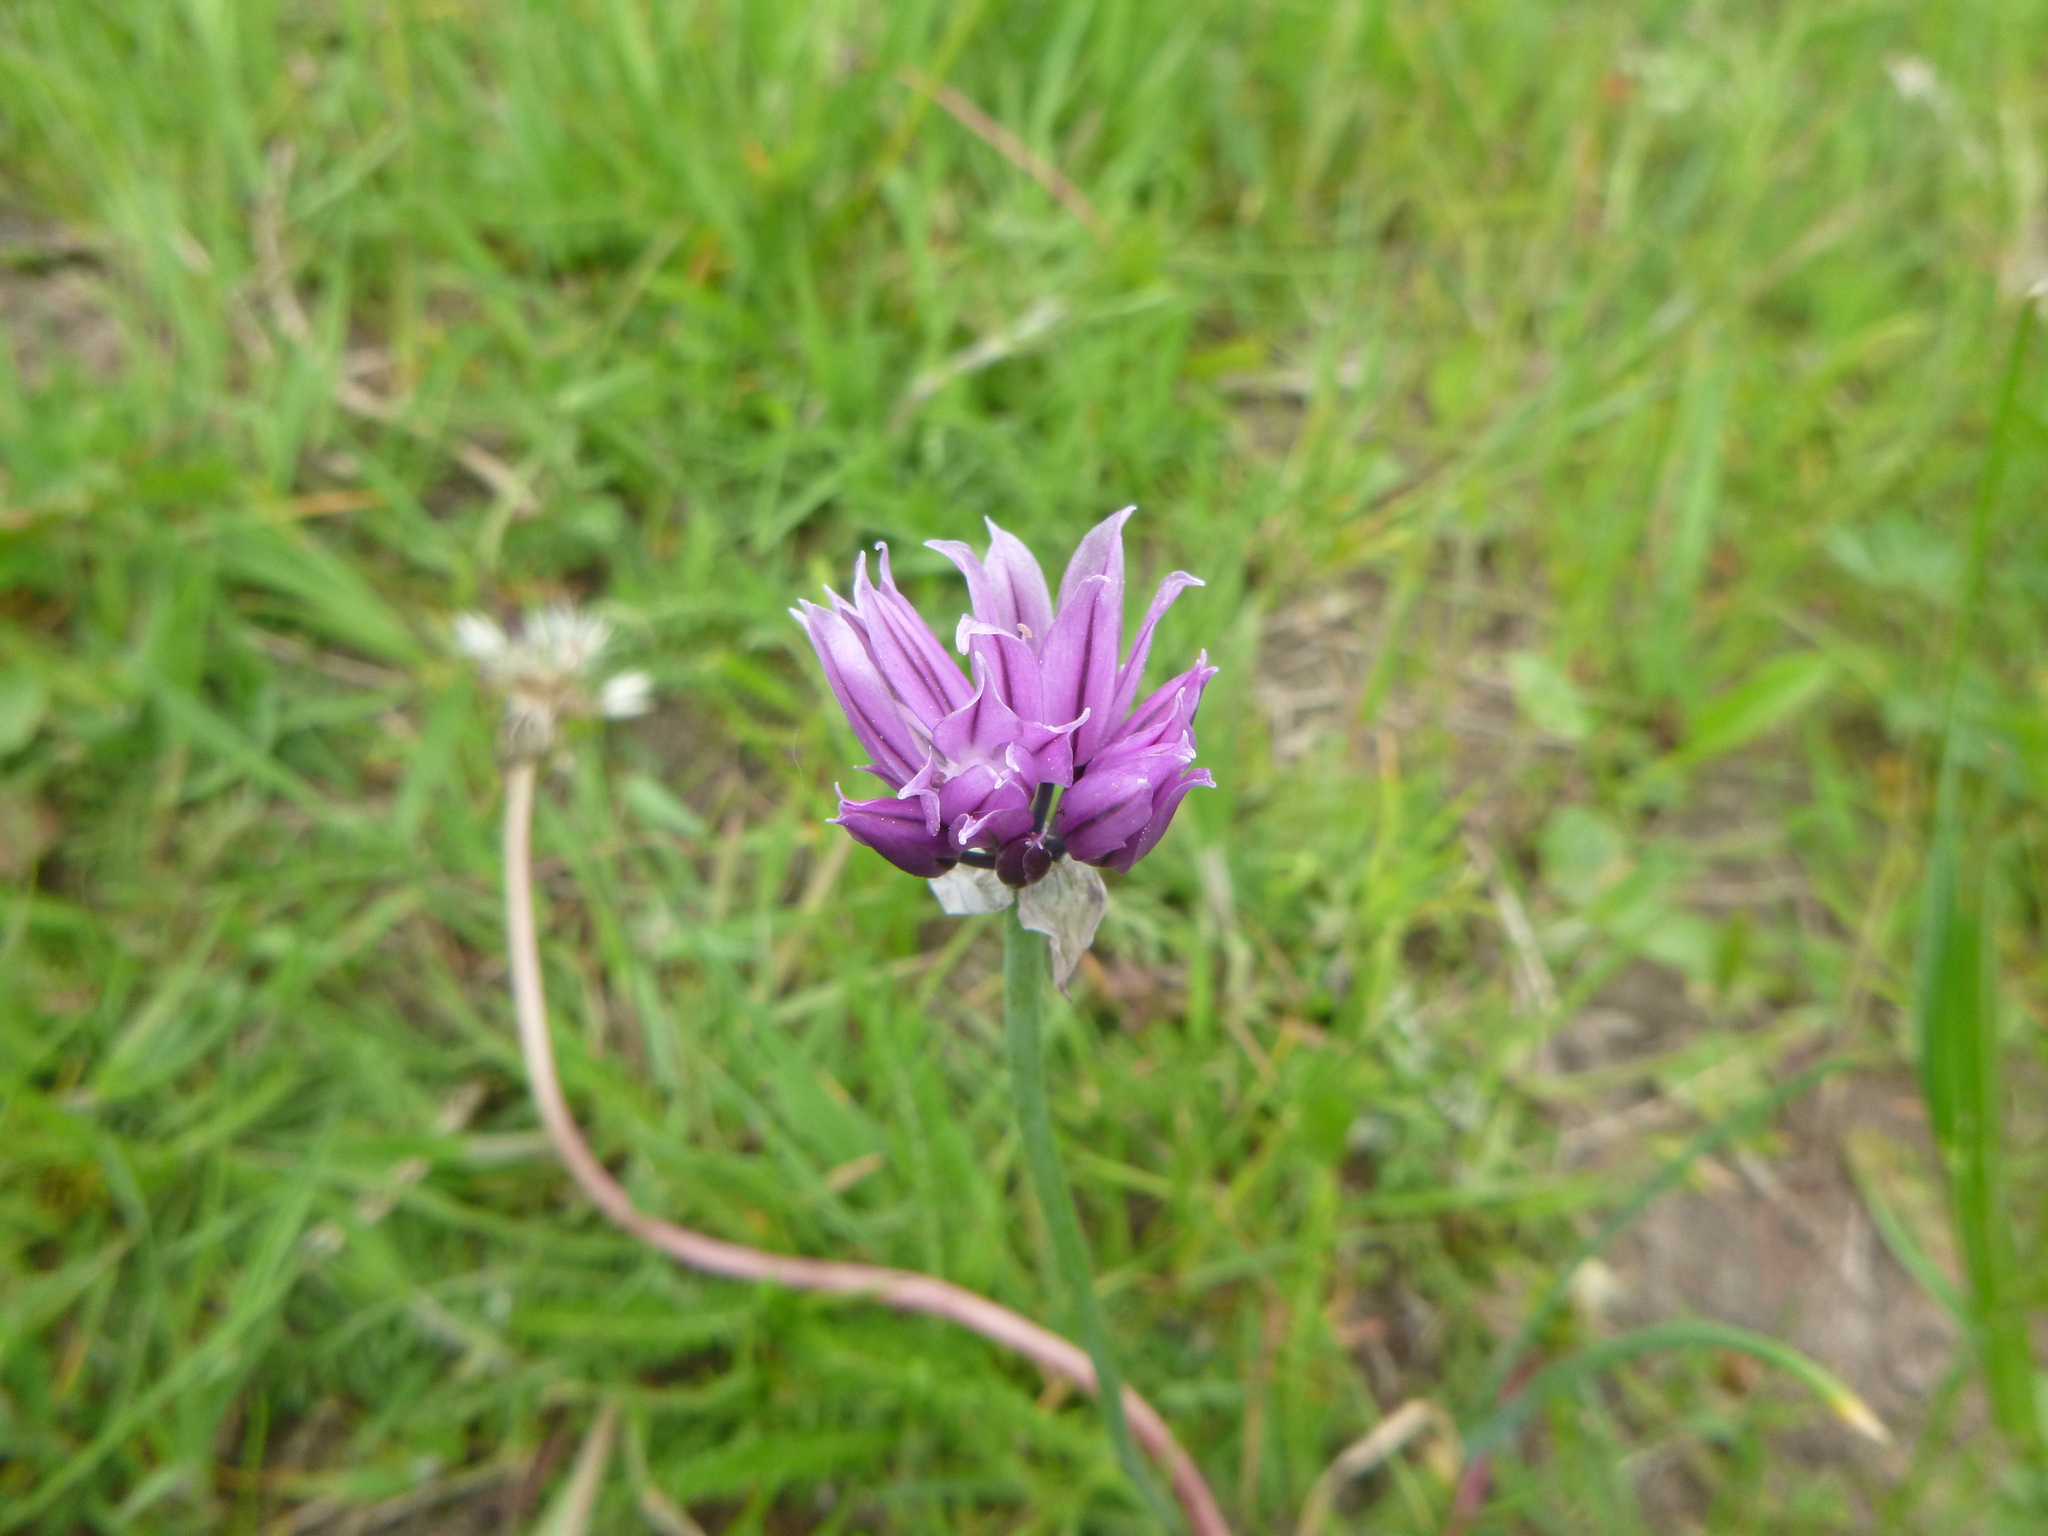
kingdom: Plantae
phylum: Tracheophyta
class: Liliopsida
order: Asparagales
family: Amaryllidaceae
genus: Allium
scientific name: Allium schoenoprasum
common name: Chives
